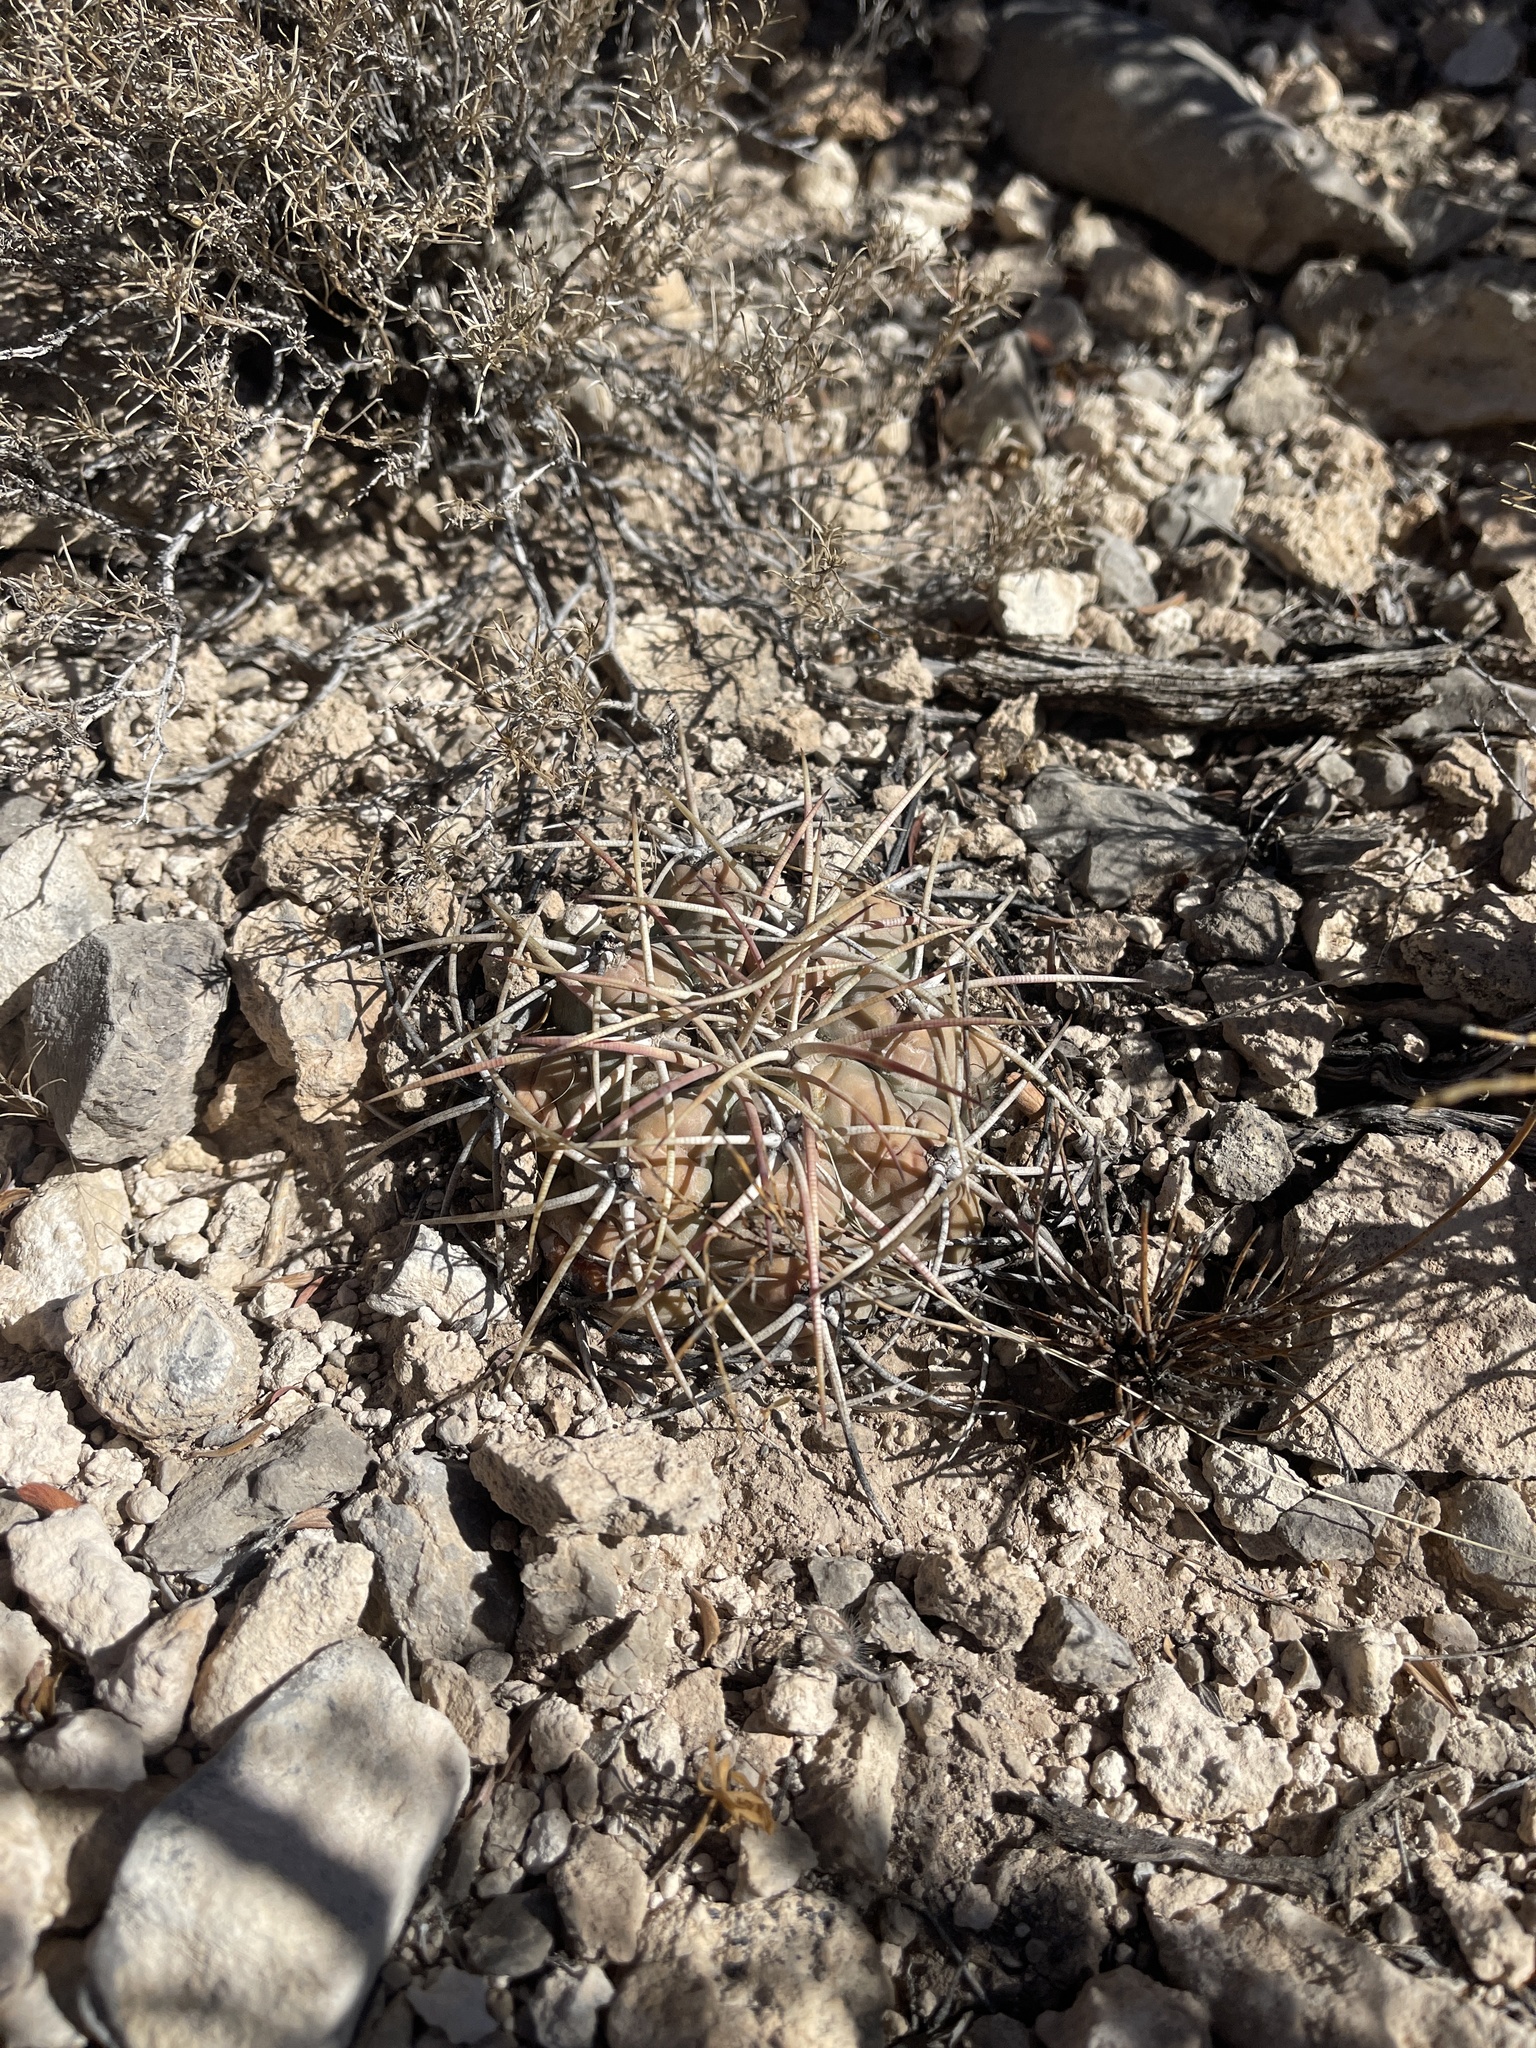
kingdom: Plantae
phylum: Tracheophyta
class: Magnoliopsida
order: Caryophyllales
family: Cactaceae
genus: Echinocactus
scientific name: Echinocactus horizonthalonius
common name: Devilshead
